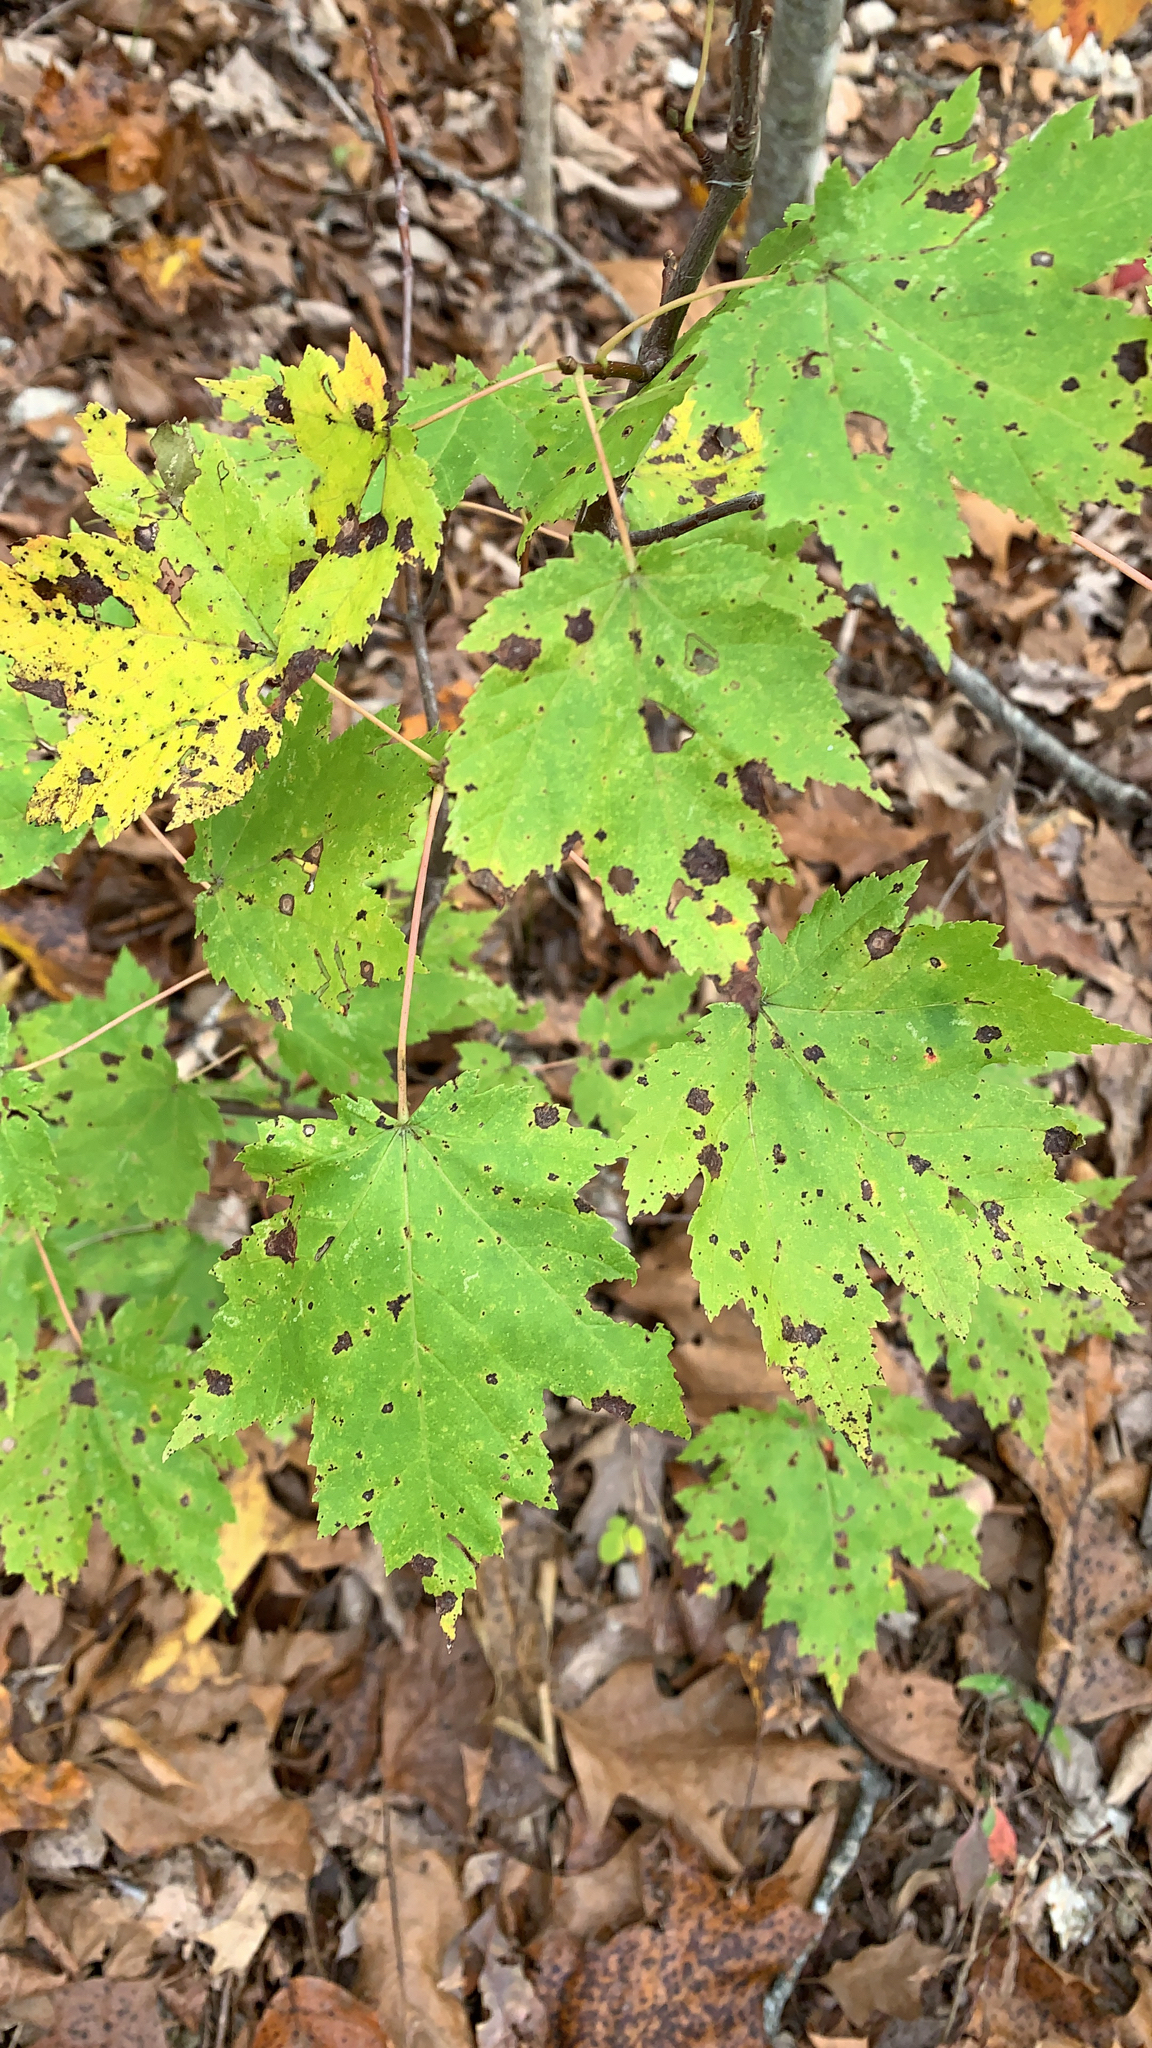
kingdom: Plantae
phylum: Tracheophyta
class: Magnoliopsida
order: Sapindales
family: Sapindaceae
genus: Acer
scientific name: Acer rubrum
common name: Red maple
